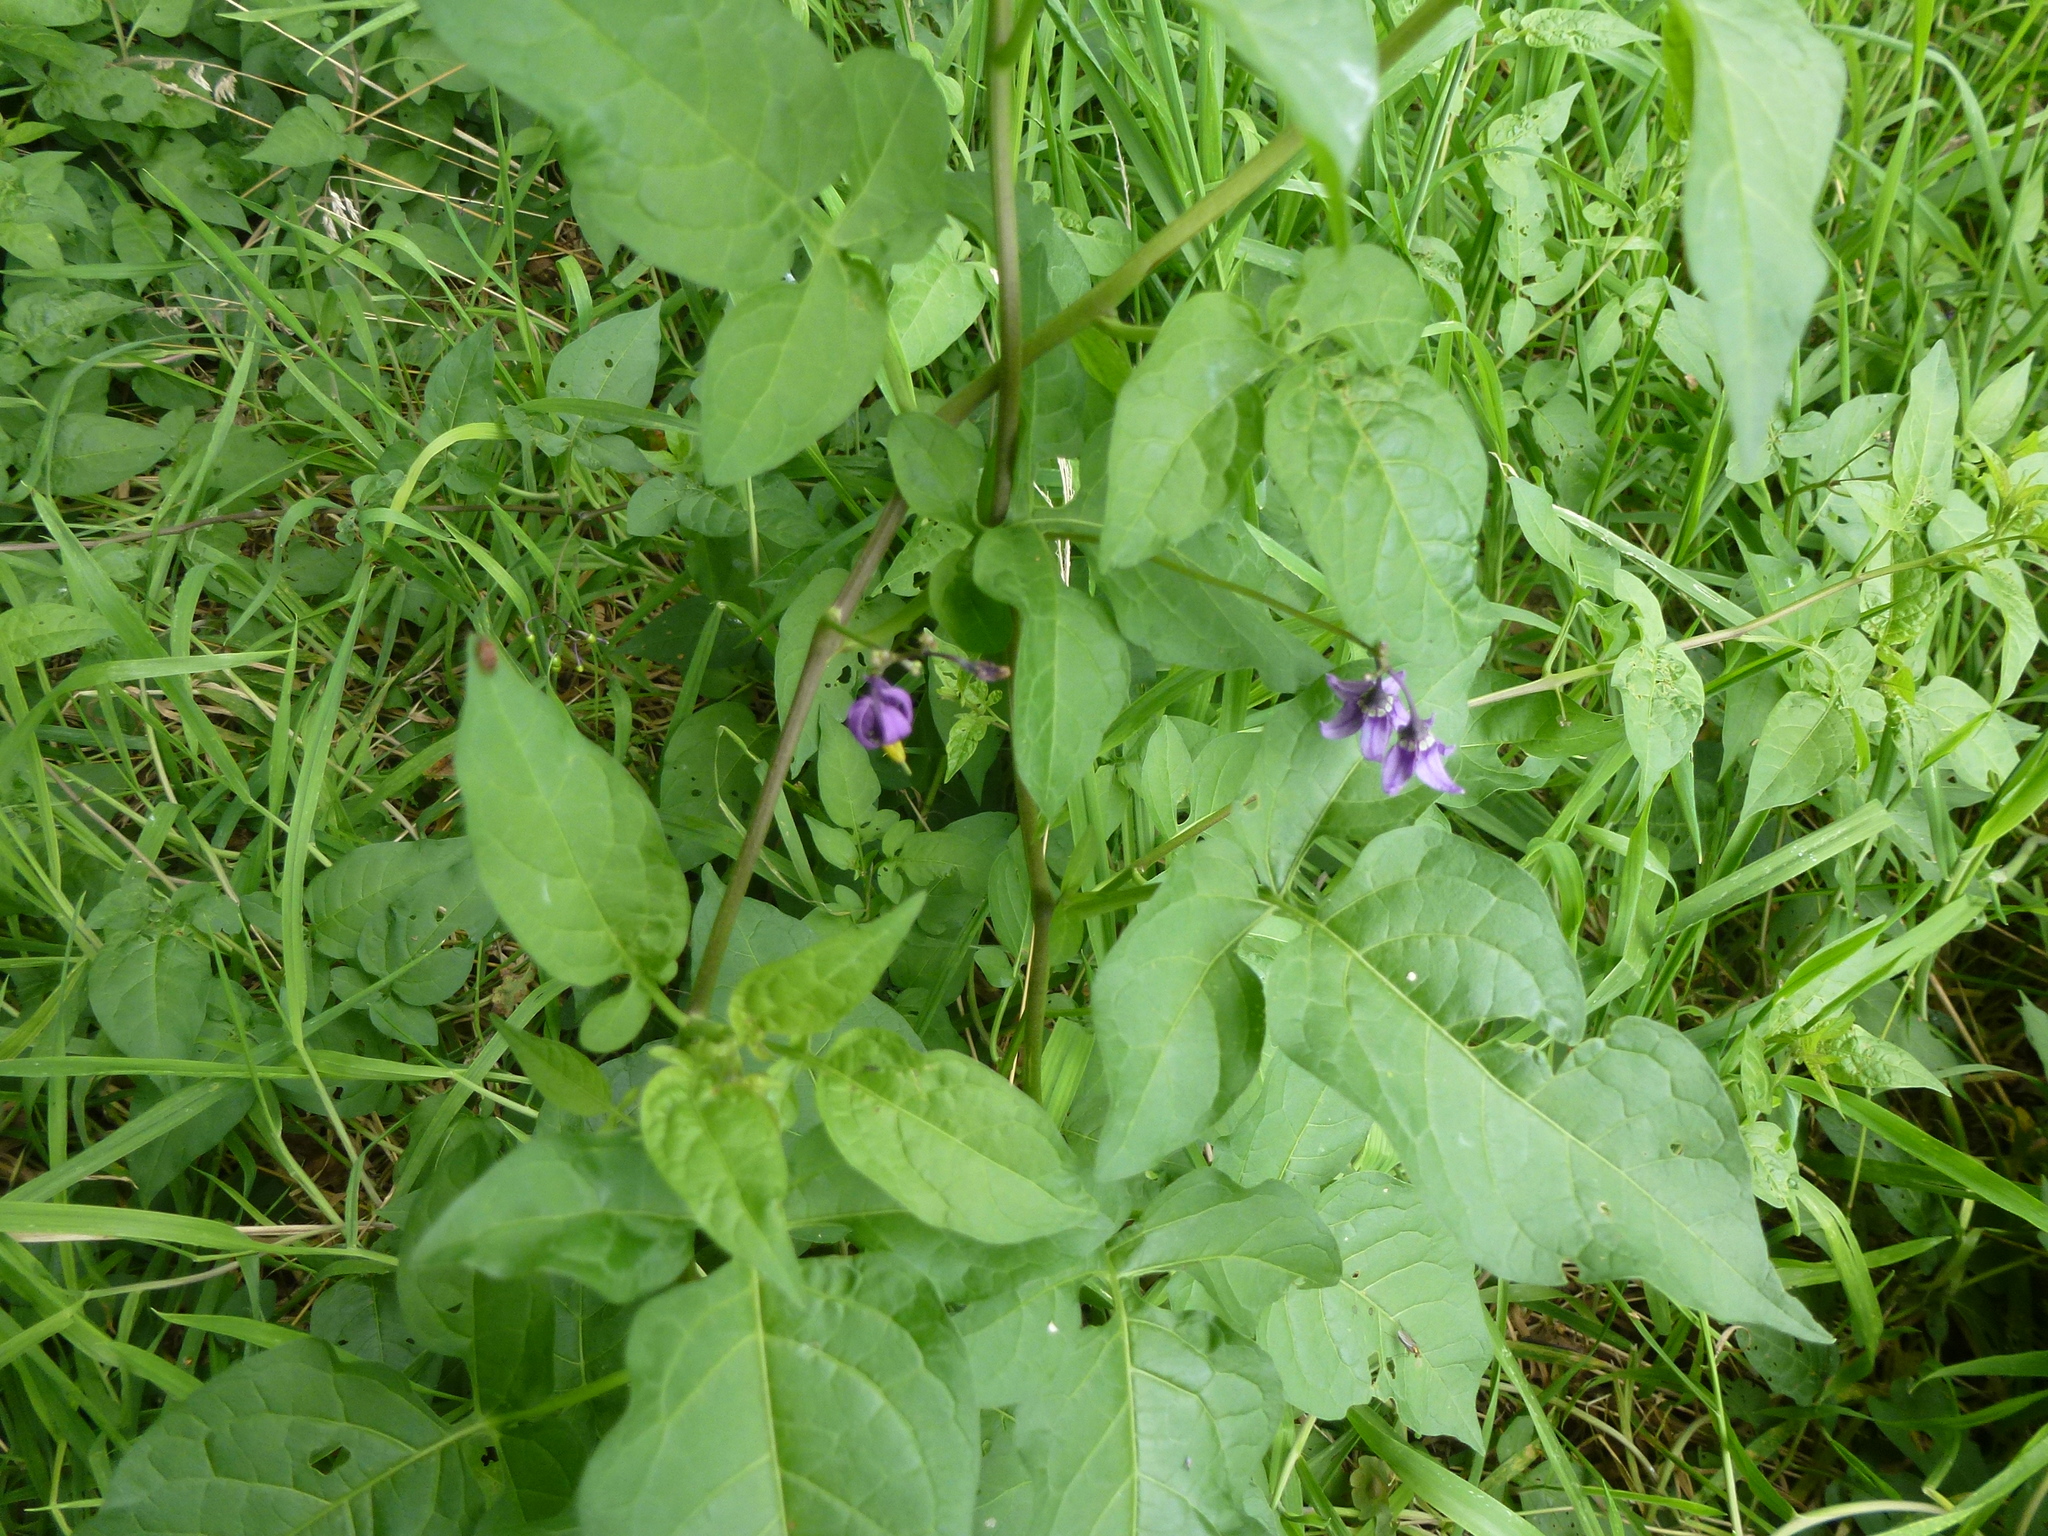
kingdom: Plantae
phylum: Tracheophyta
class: Magnoliopsida
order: Solanales
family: Solanaceae
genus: Solanum
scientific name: Solanum dulcamara
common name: Climbing nightshade
